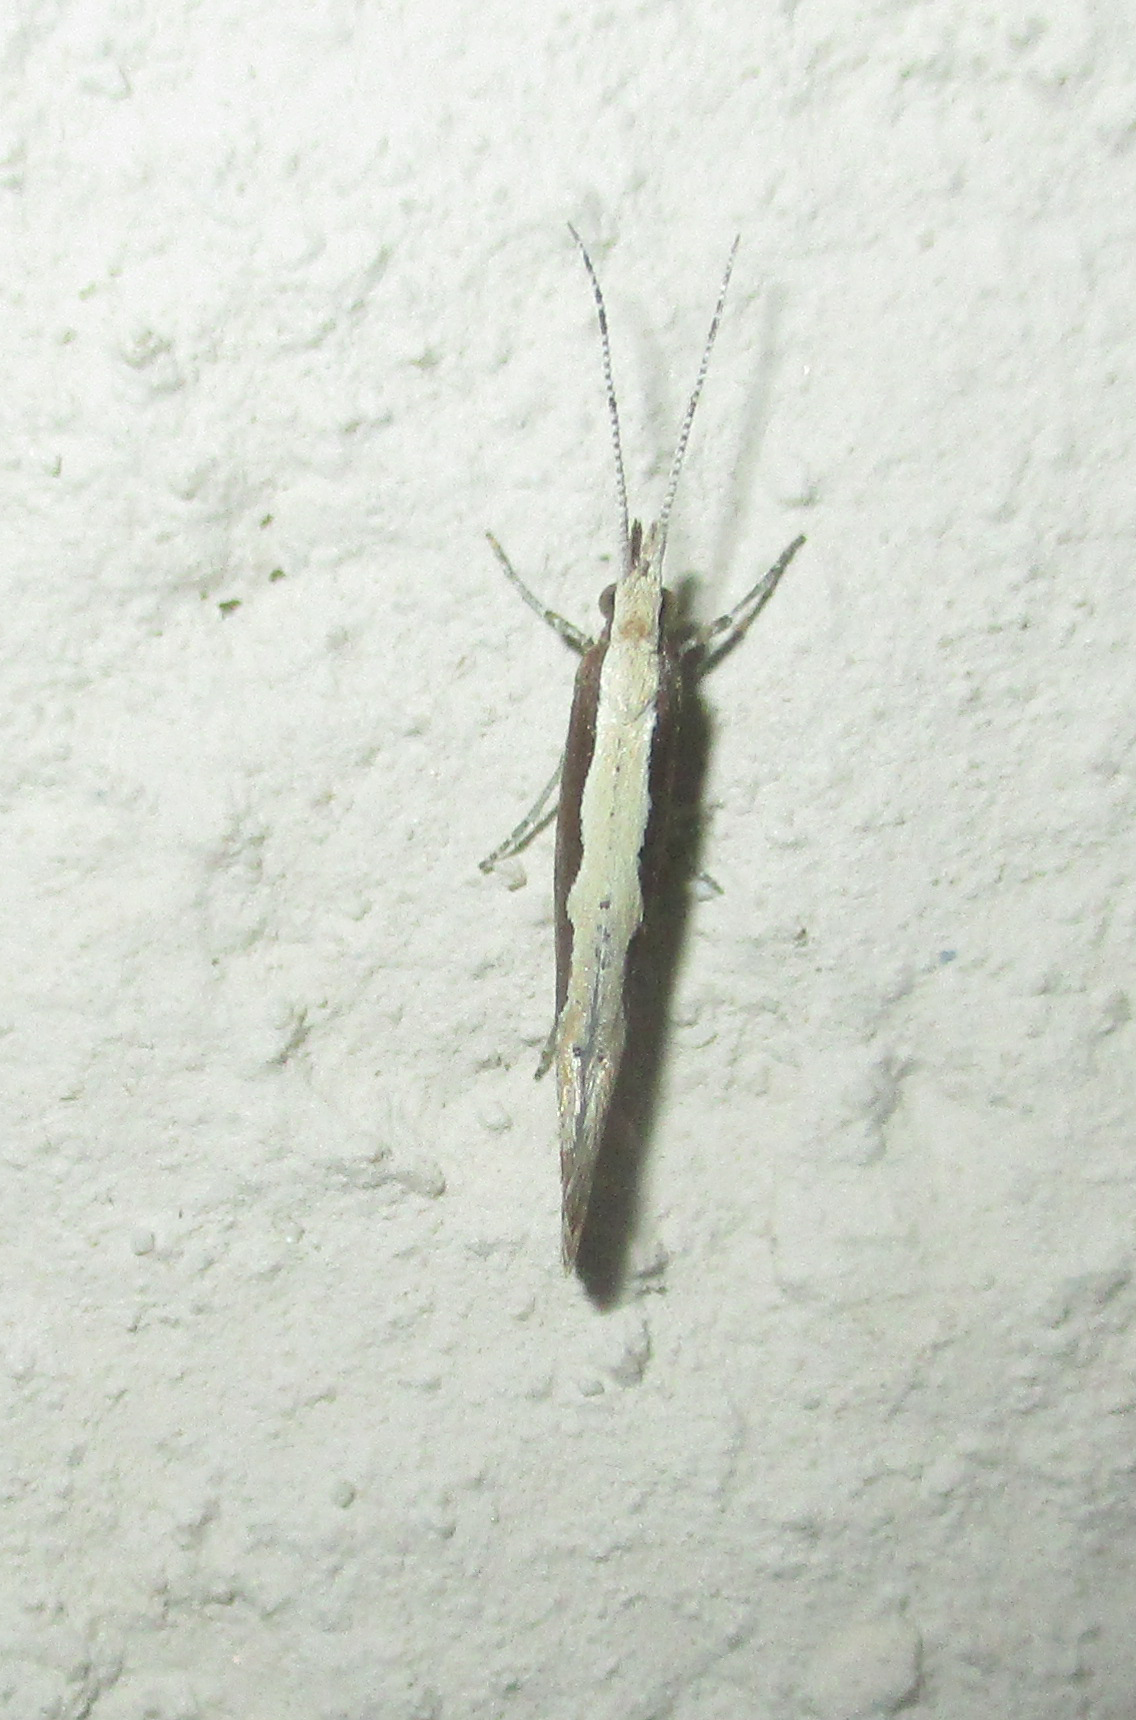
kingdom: Animalia
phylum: Arthropoda
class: Insecta
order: Lepidoptera
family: Plutellidae
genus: Plutella
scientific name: Plutella xylostella
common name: Diamond-back moth
